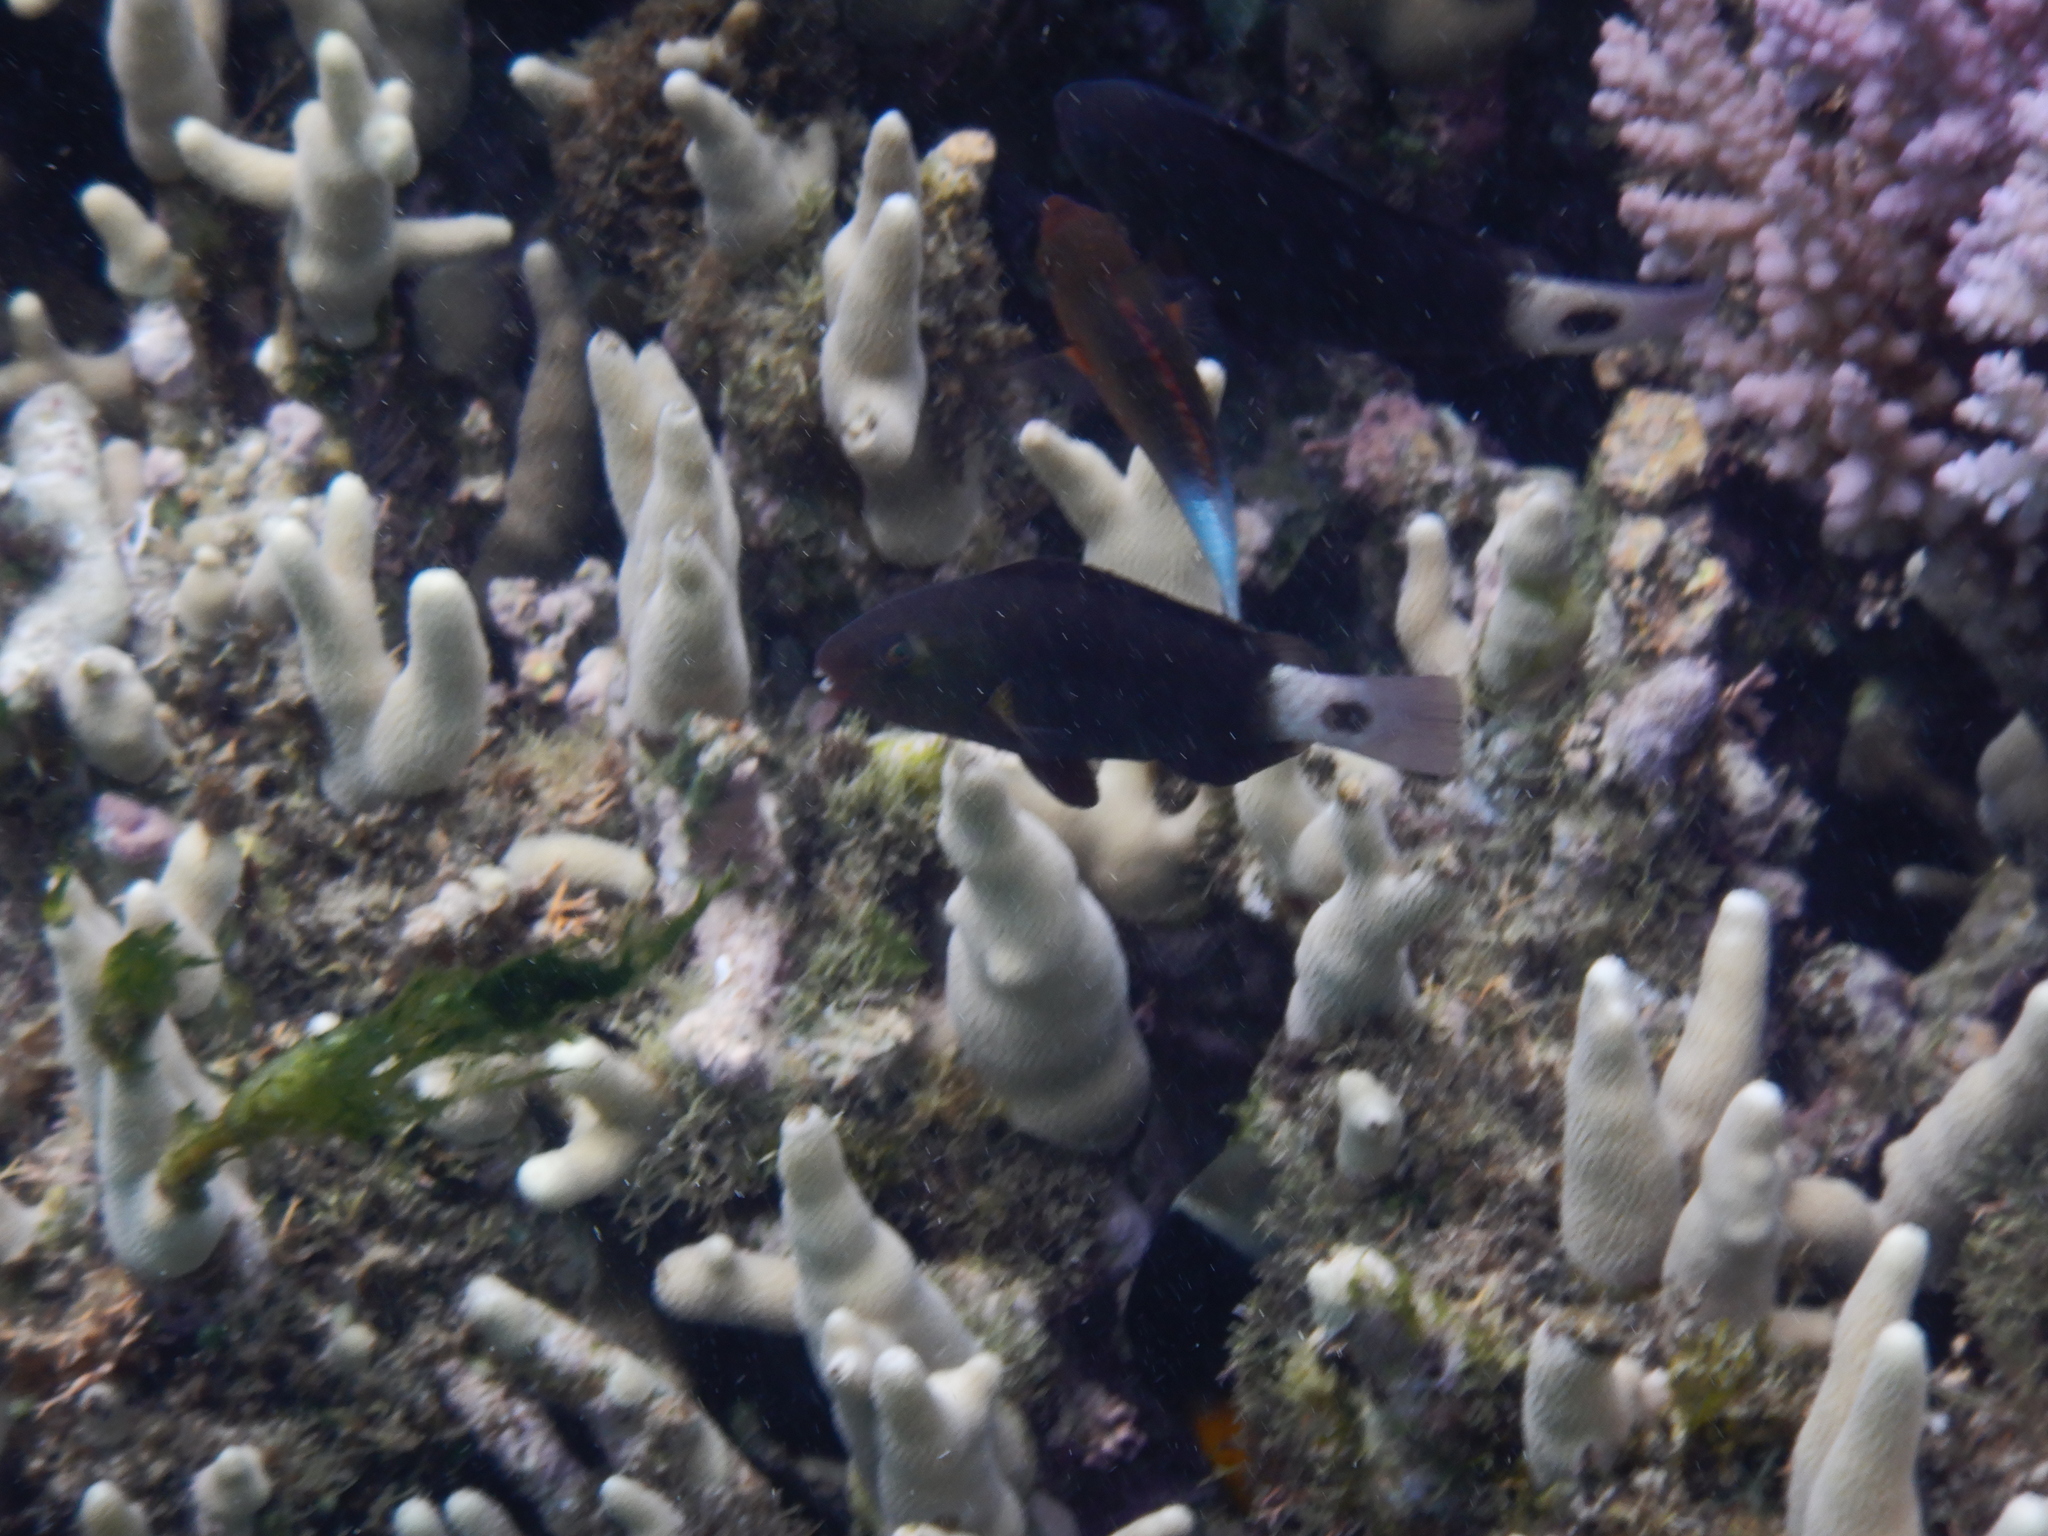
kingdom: Animalia
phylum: Chordata
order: Perciformes
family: Scaridae
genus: Chlorurus
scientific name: Chlorurus spilurus
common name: Bullethead parrotfish
